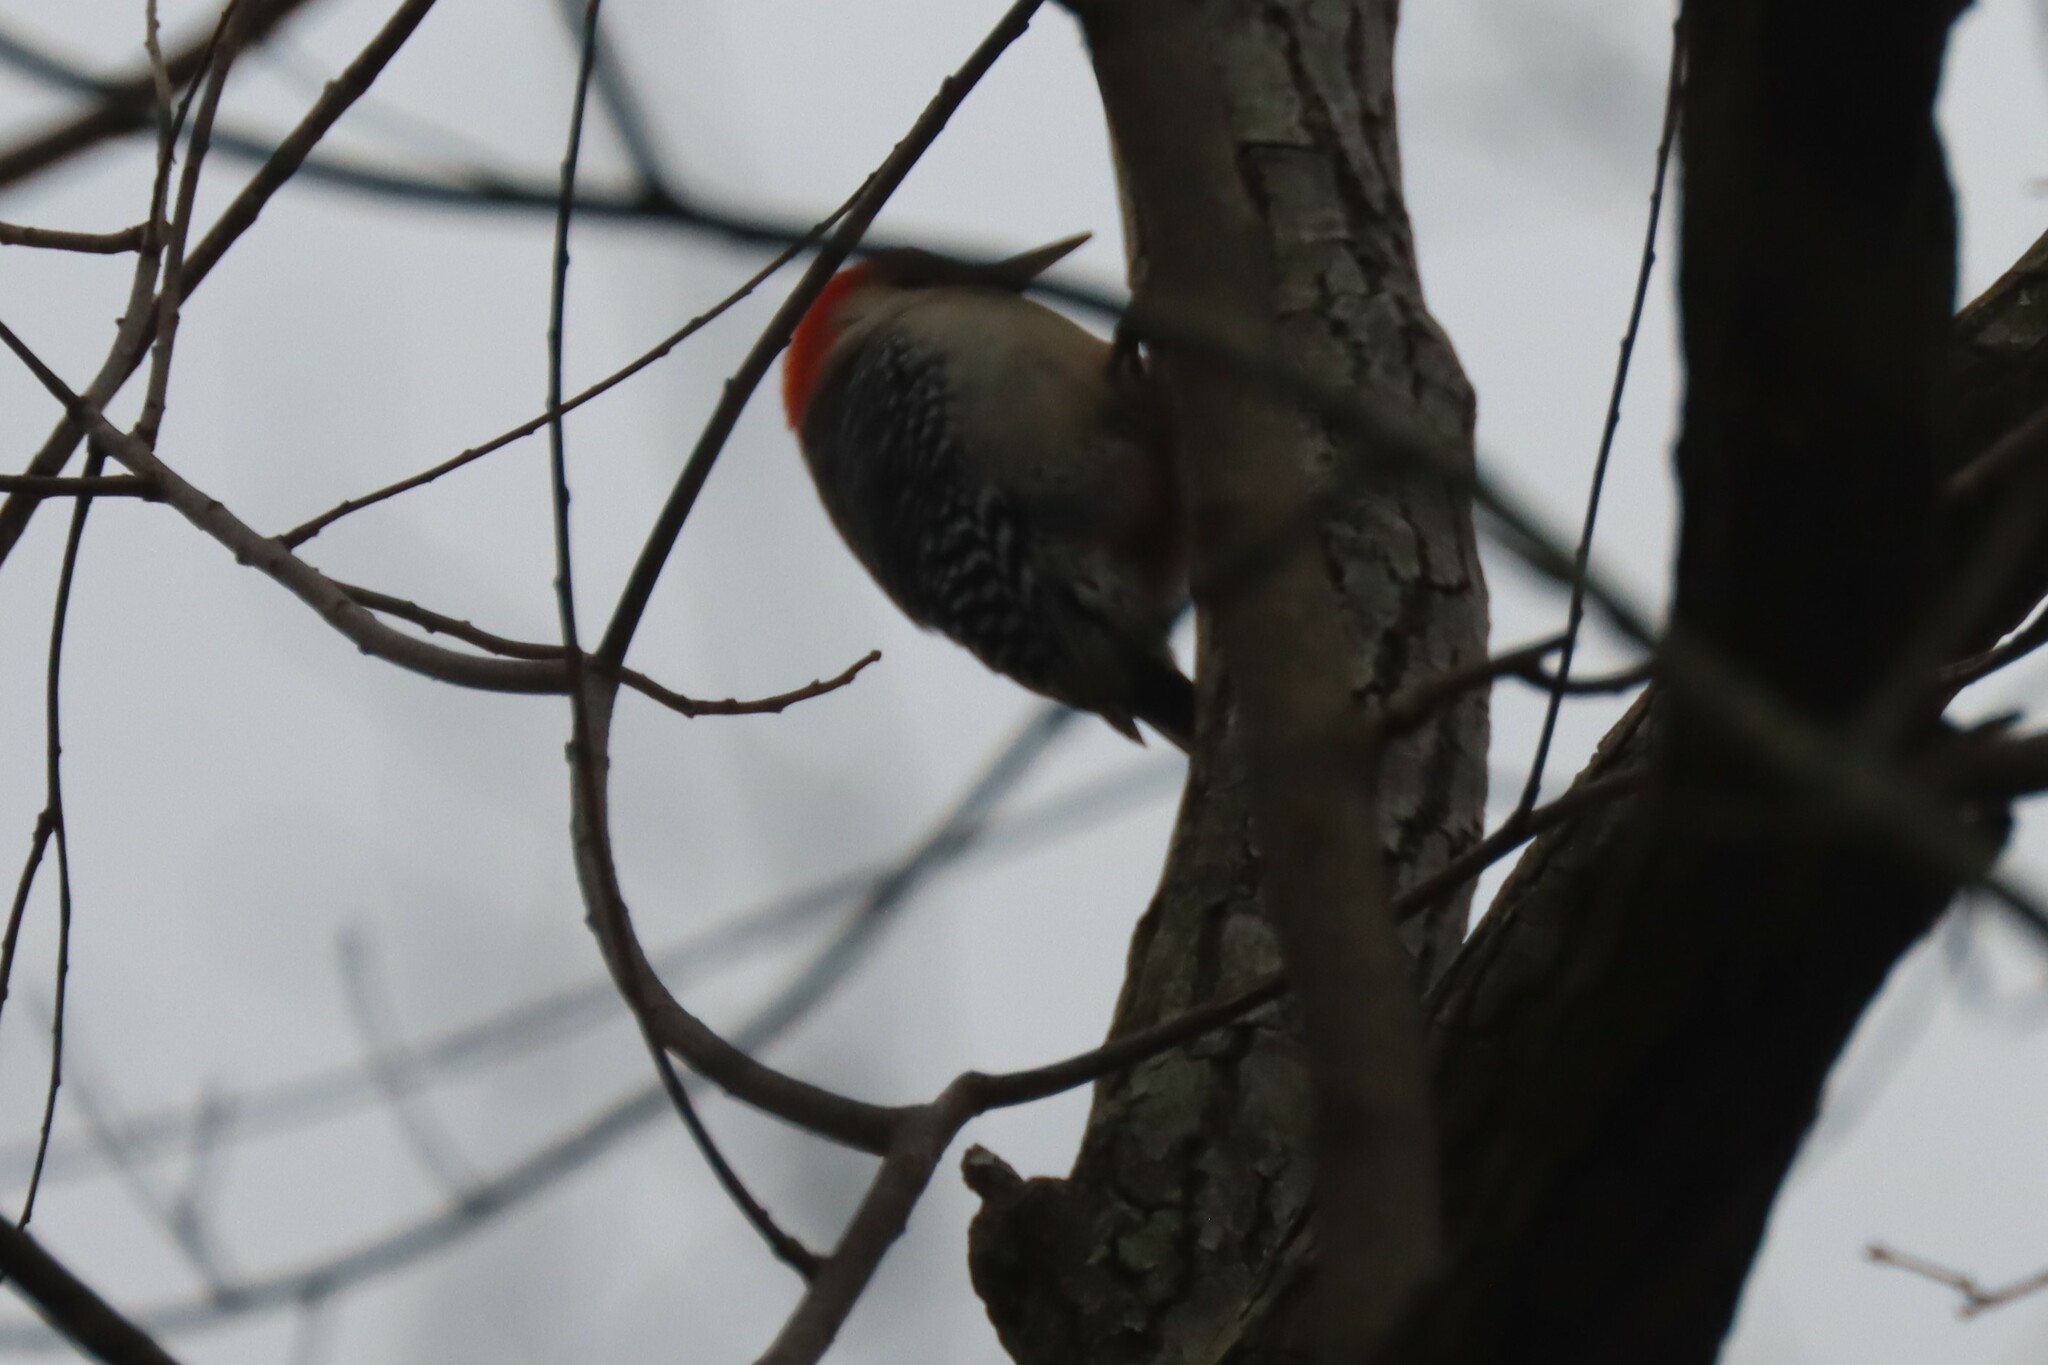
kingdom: Animalia
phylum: Chordata
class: Aves
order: Piciformes
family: Picidae
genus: Melanerpes
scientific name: Melanerpes carolinus
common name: Red-bellied woodpecker
